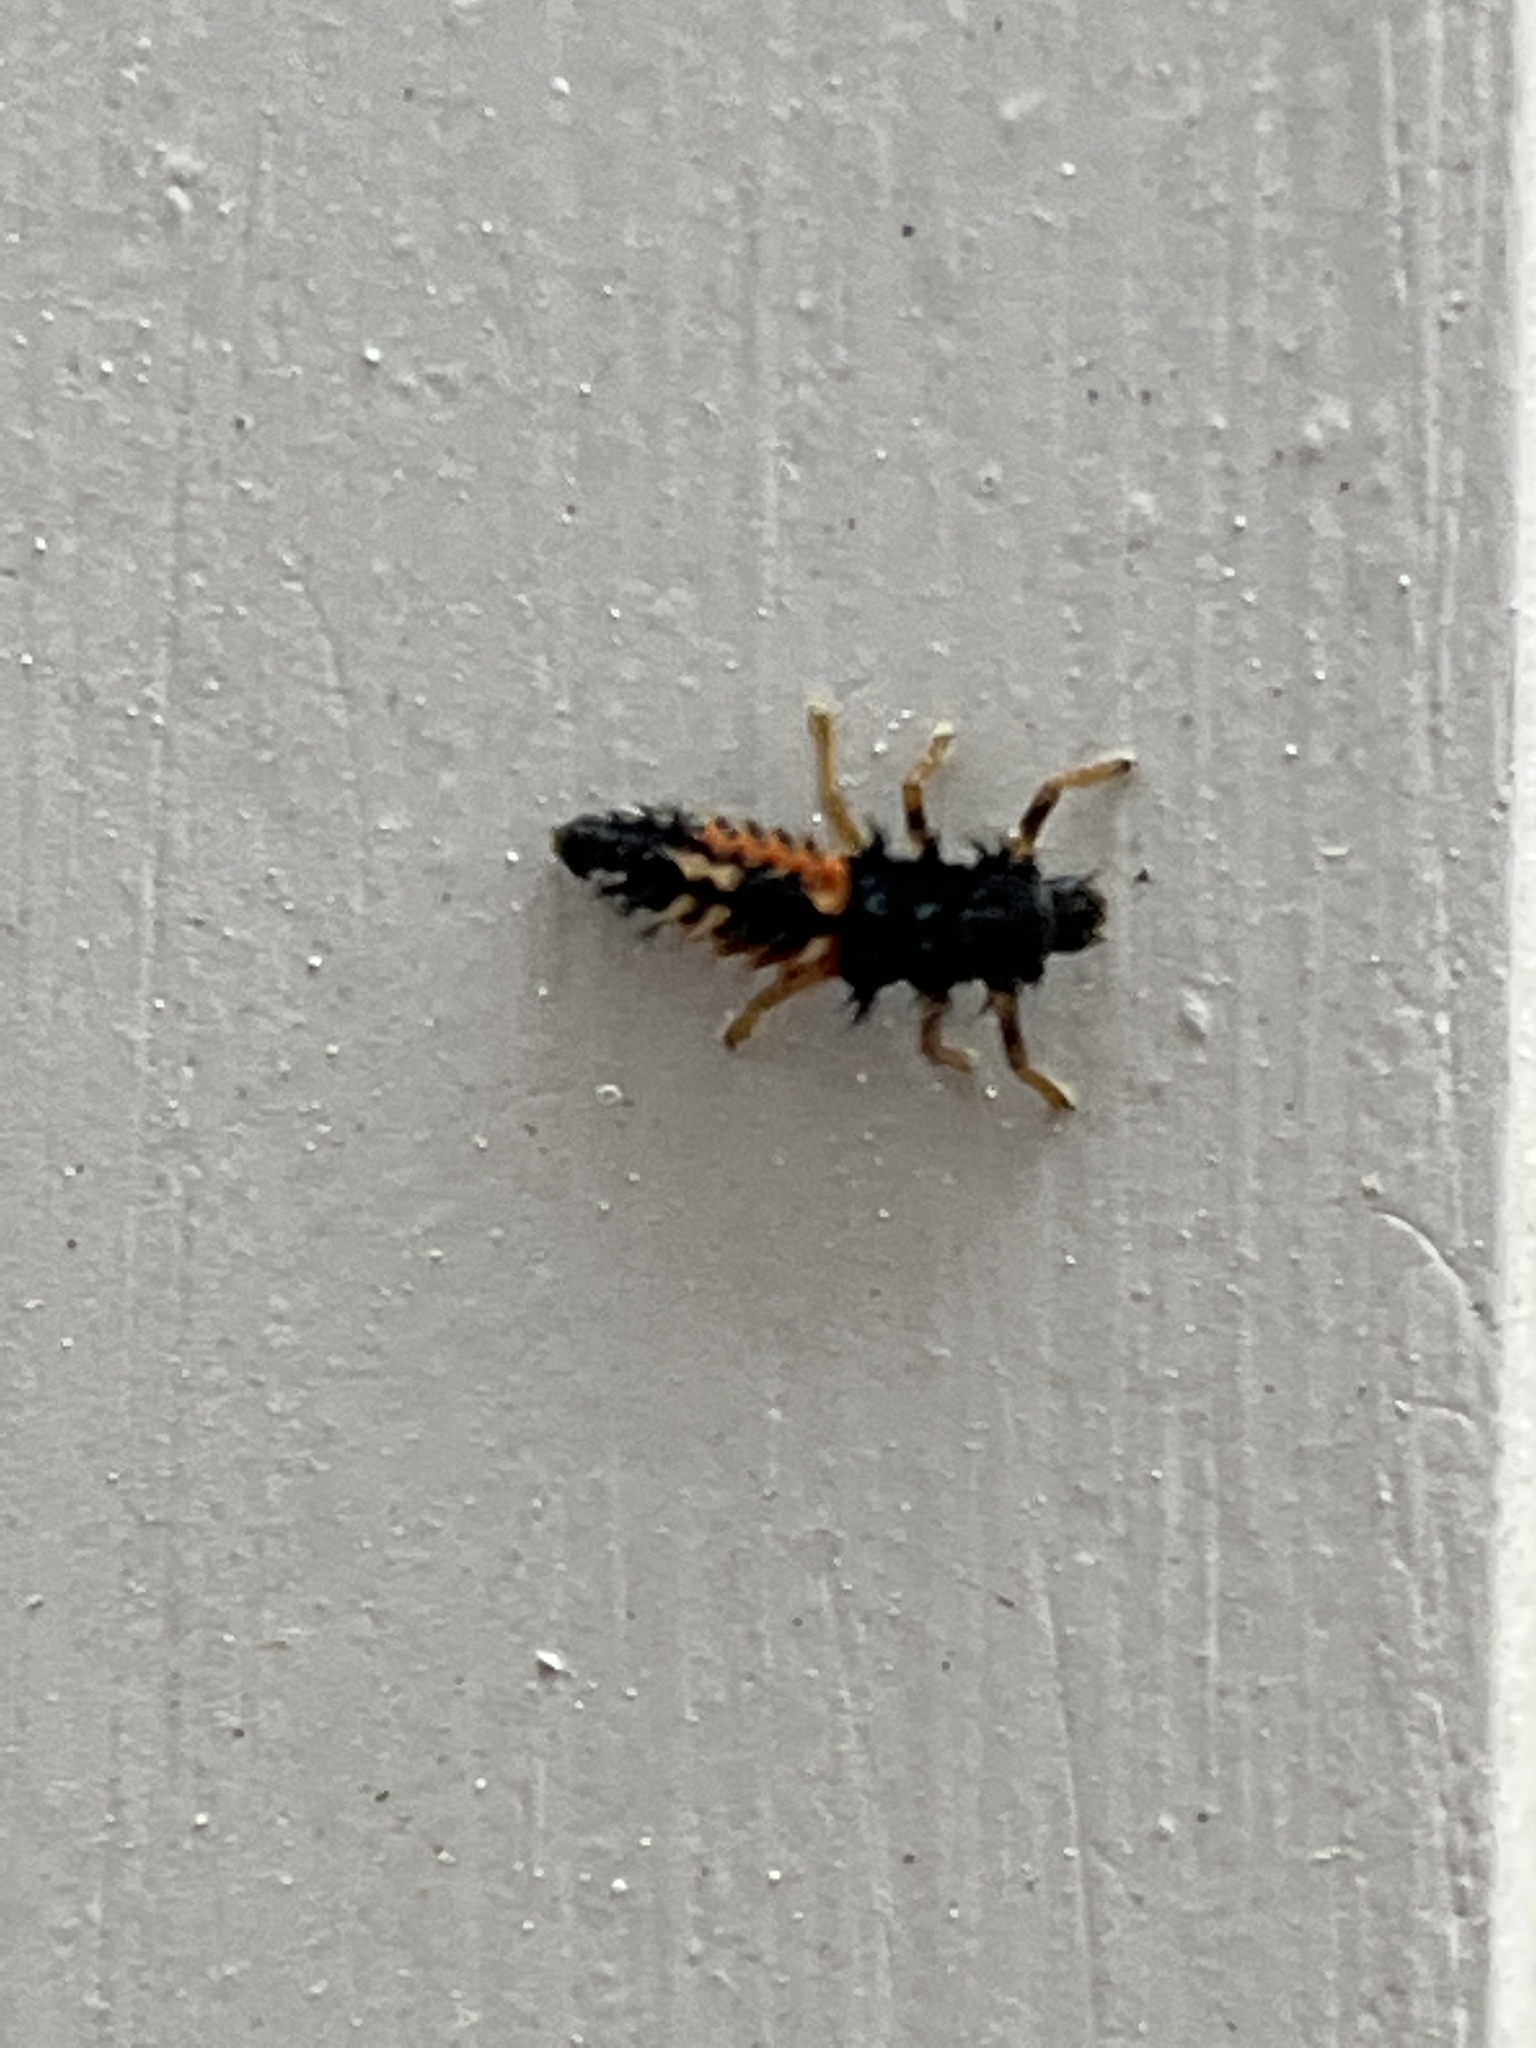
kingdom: Animalia
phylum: Arthropoda
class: Insecta
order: Coleoptera
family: Coccinellidae
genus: Harmonia
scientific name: Harmonia axyridis
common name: Harlequin ladybird
